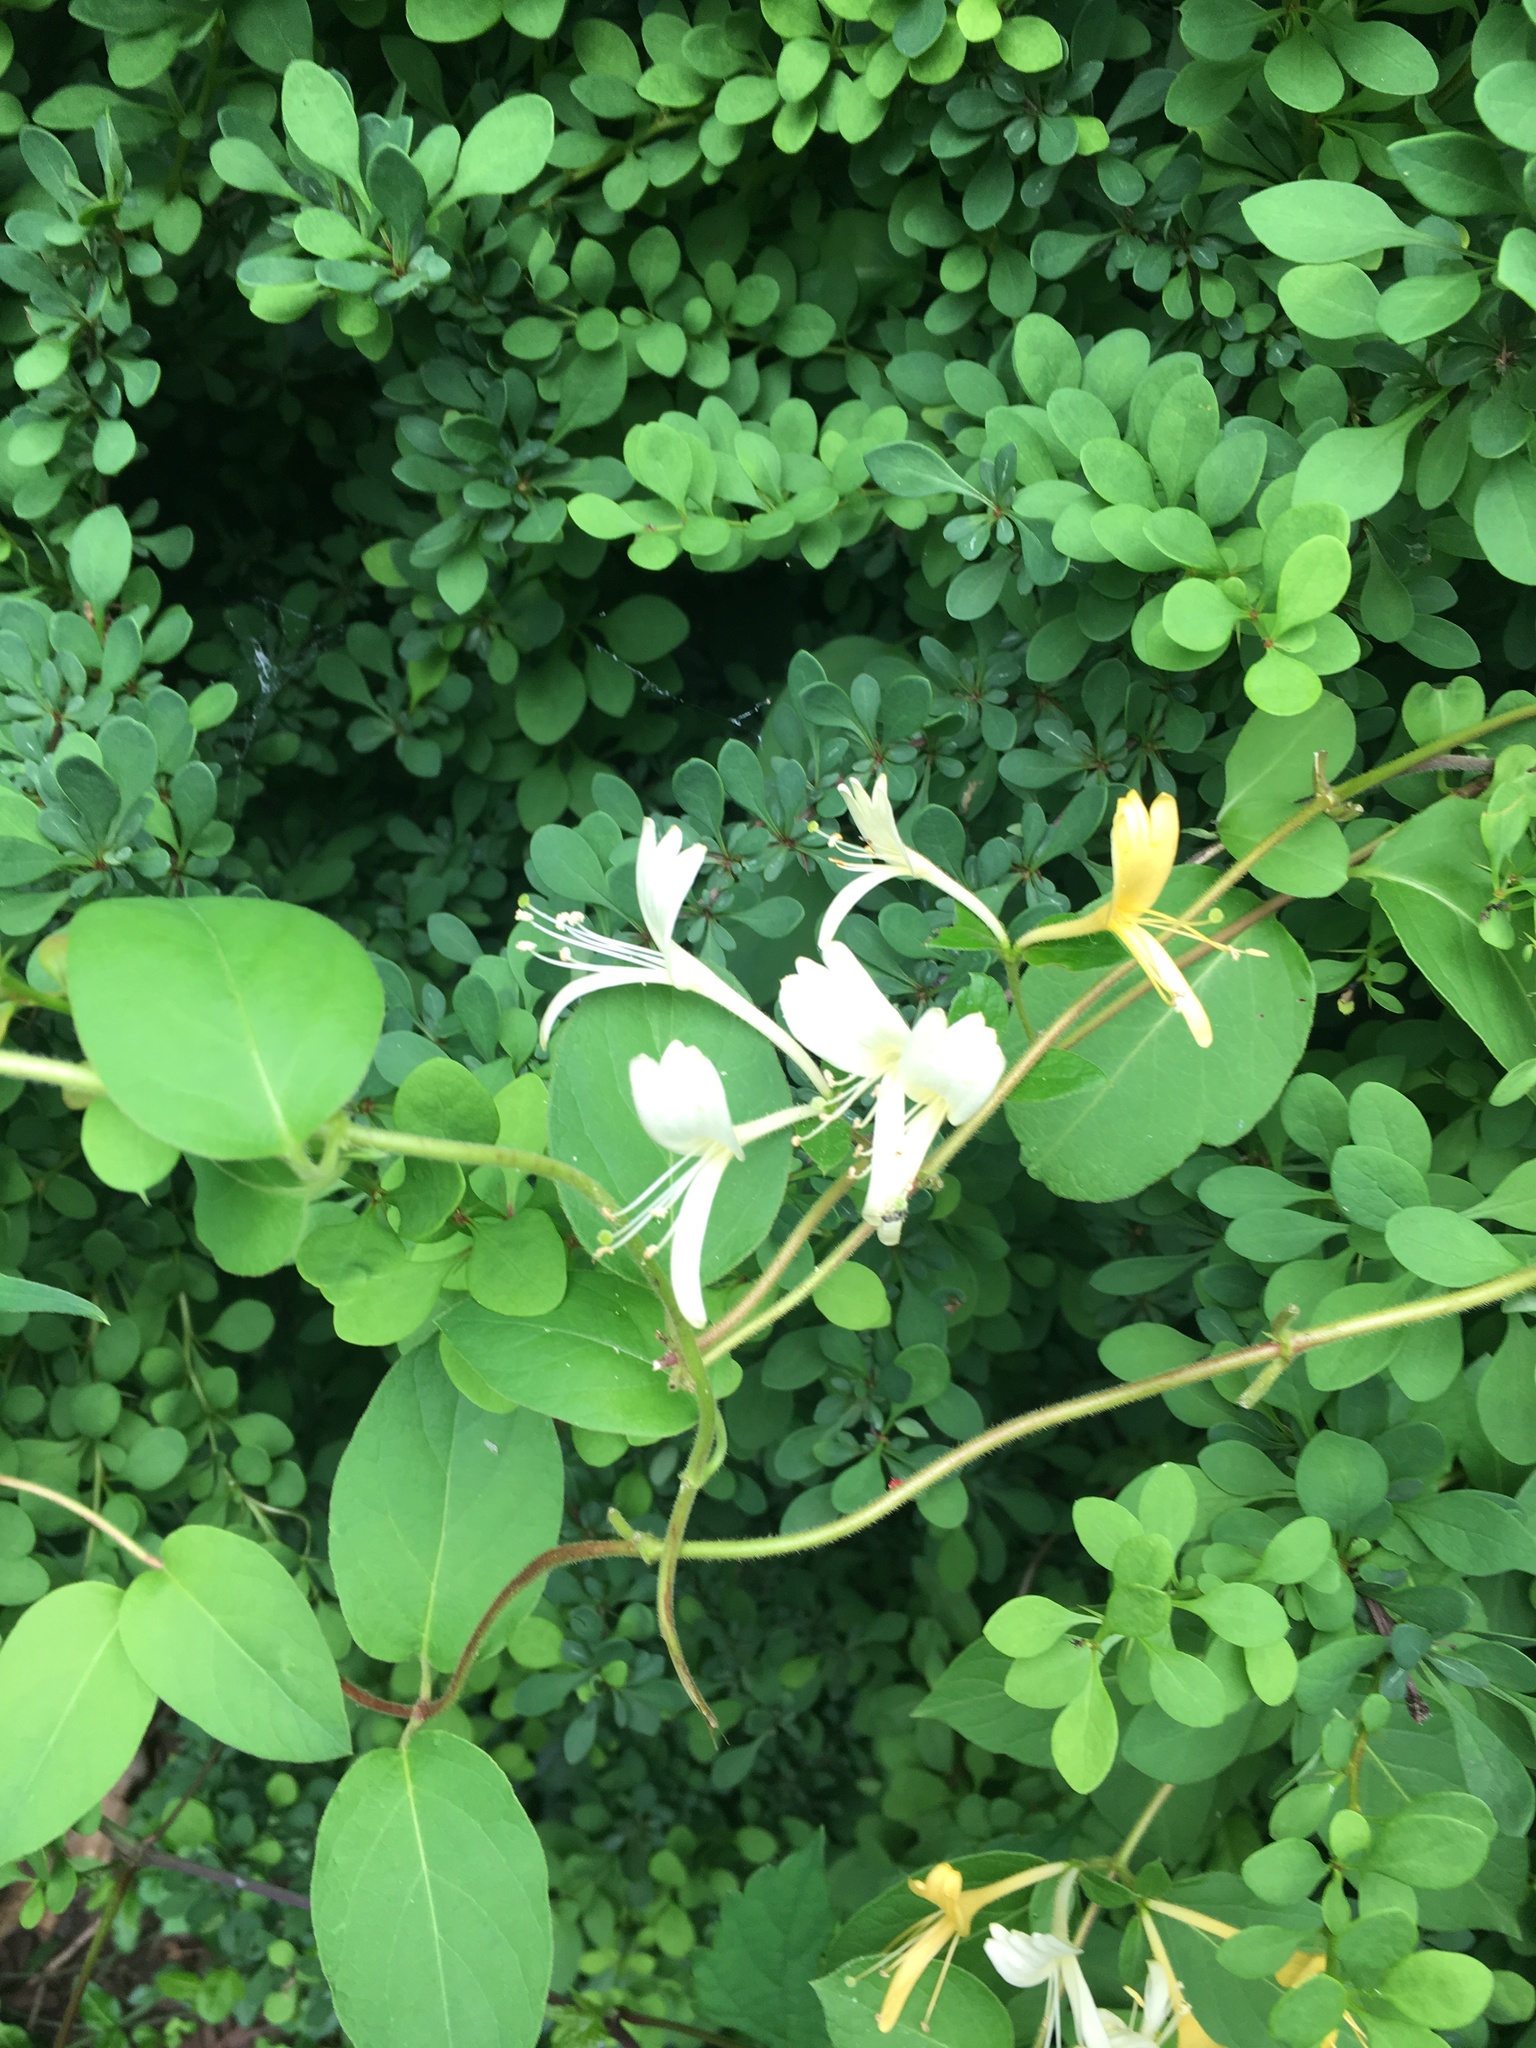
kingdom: Plantae
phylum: Tracheophyta
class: Magnoliopsida
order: Dipsacales
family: Caprifoliaceae
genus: Lonicera
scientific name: Lonicera japonica
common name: Japanese honeysuckle
